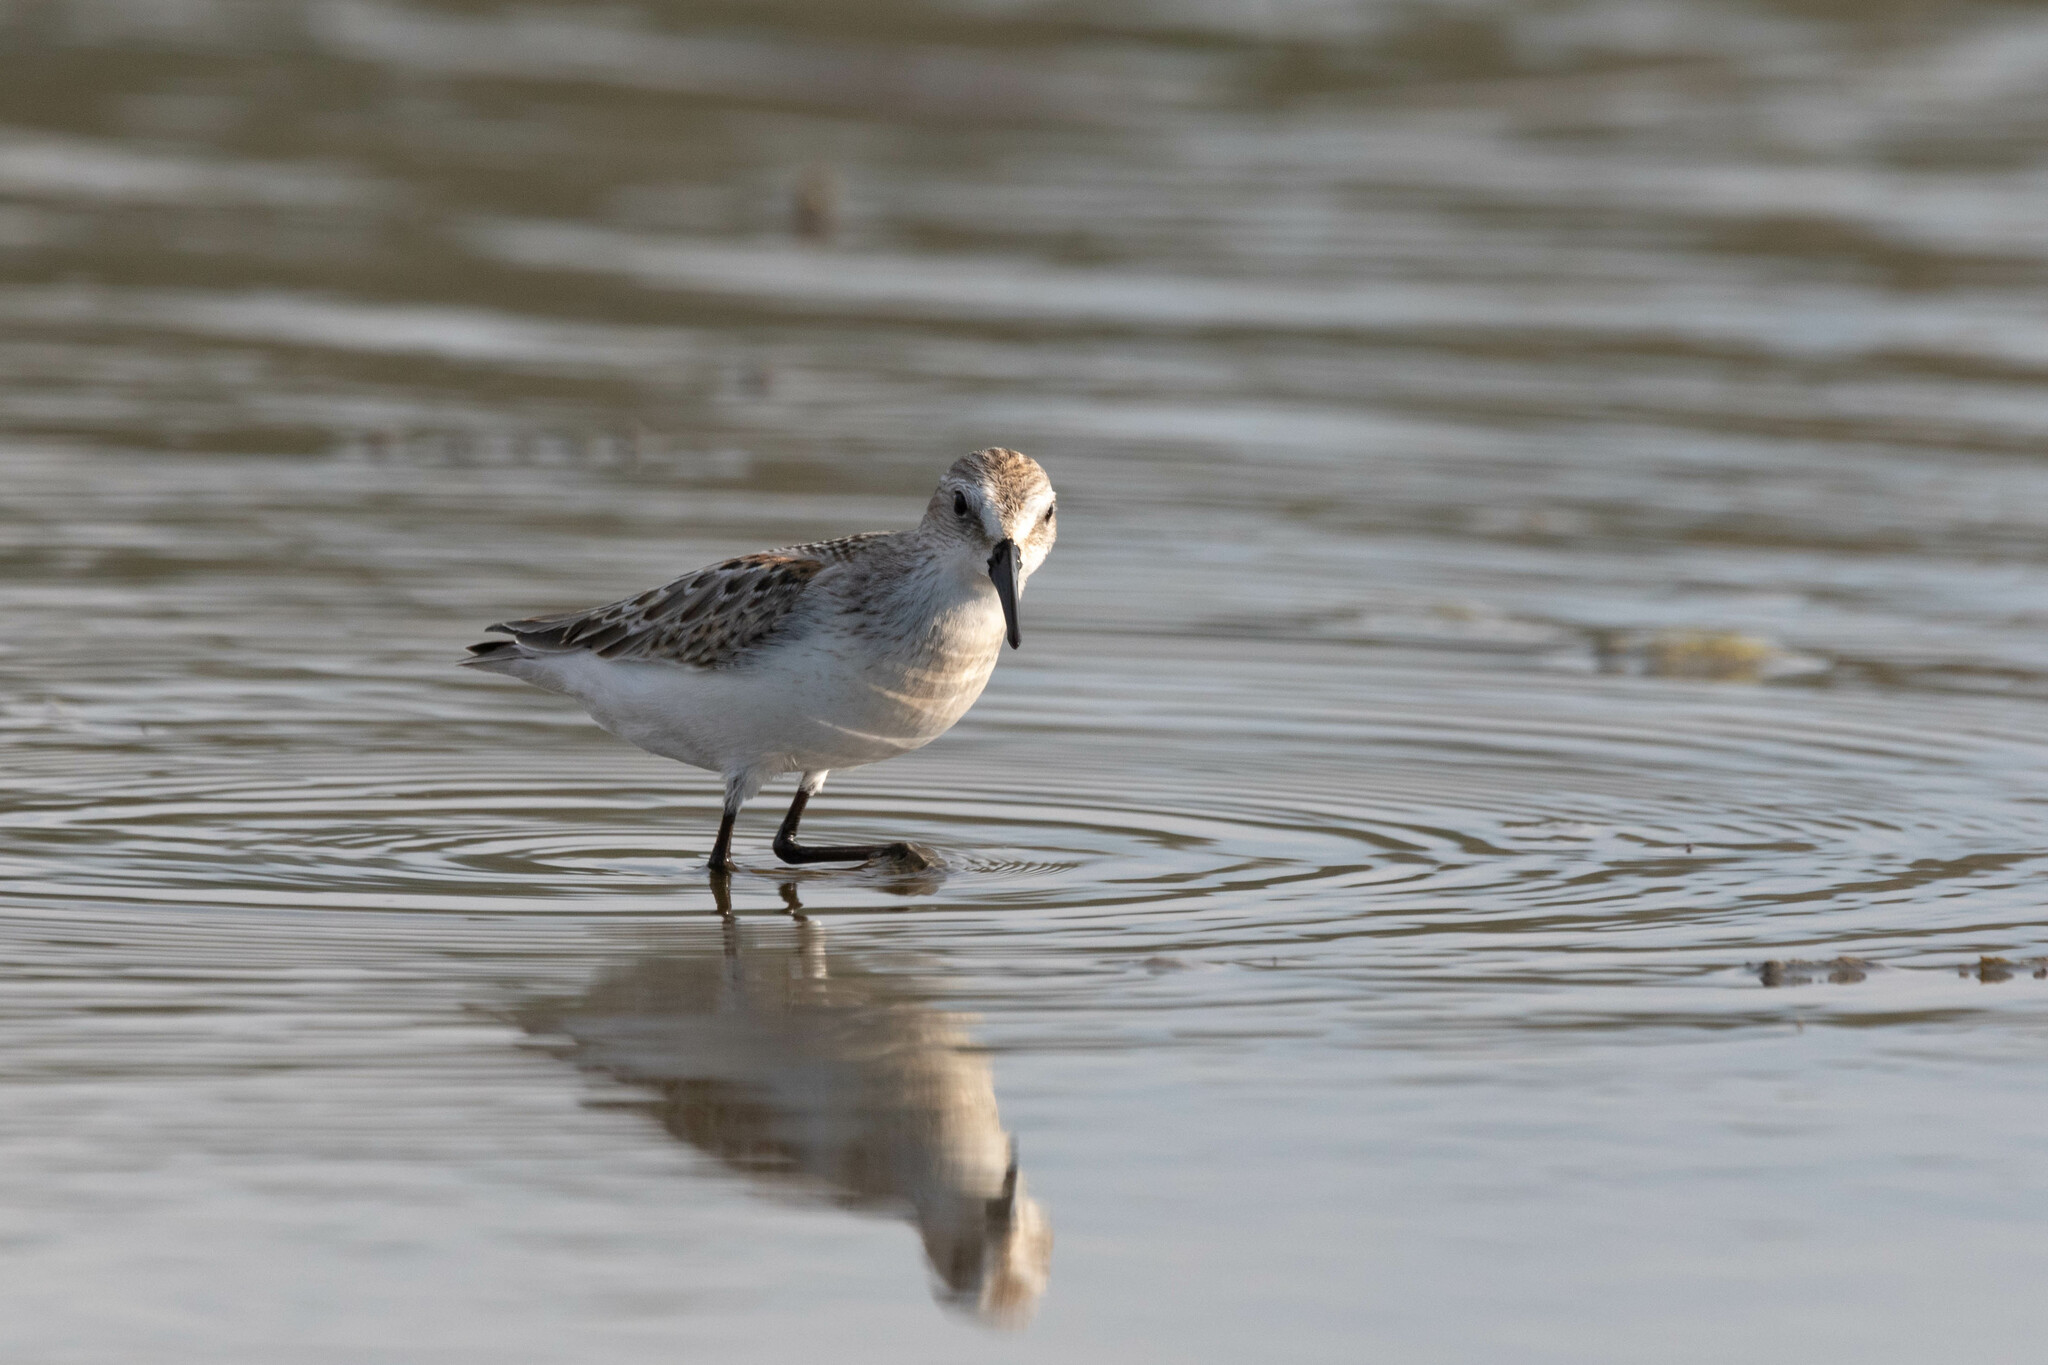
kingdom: Animalia
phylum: Chordata
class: Aves
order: Charadriiformes
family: Scolopacidae
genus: Calidris
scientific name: Calidris mauri
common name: Western sandpiper
